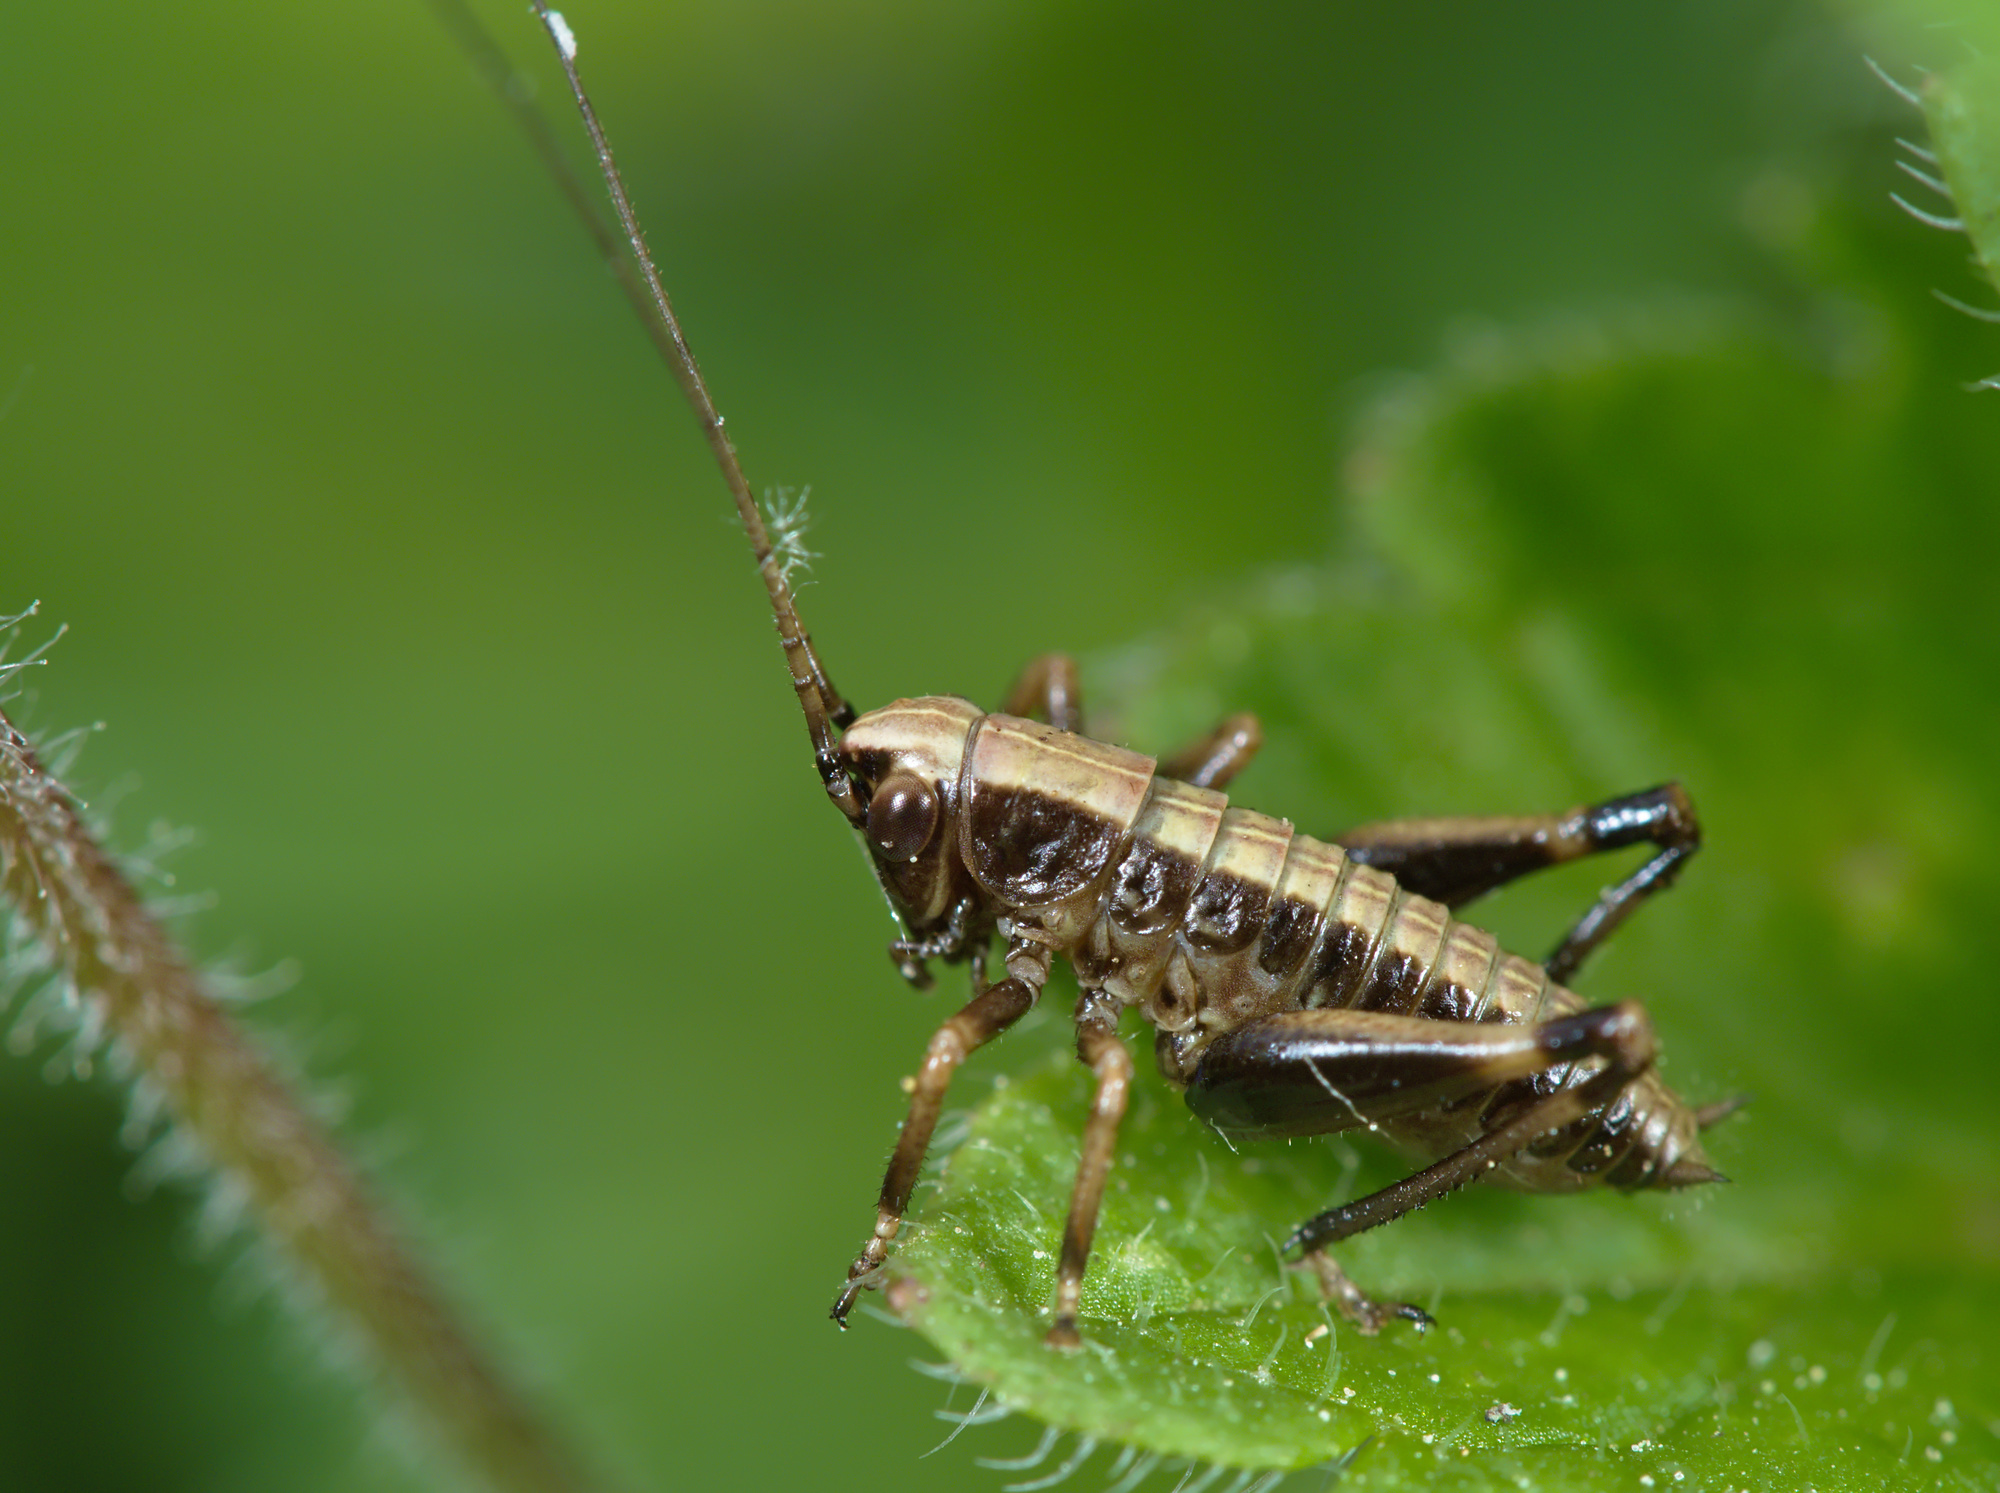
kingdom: Animalia
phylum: Arthropoda
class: Insecta
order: Orthoptera
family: Tettigoniidae
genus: Pholidoptera
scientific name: Pholidoptera griseoaptera
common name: Dark bush-cricket
